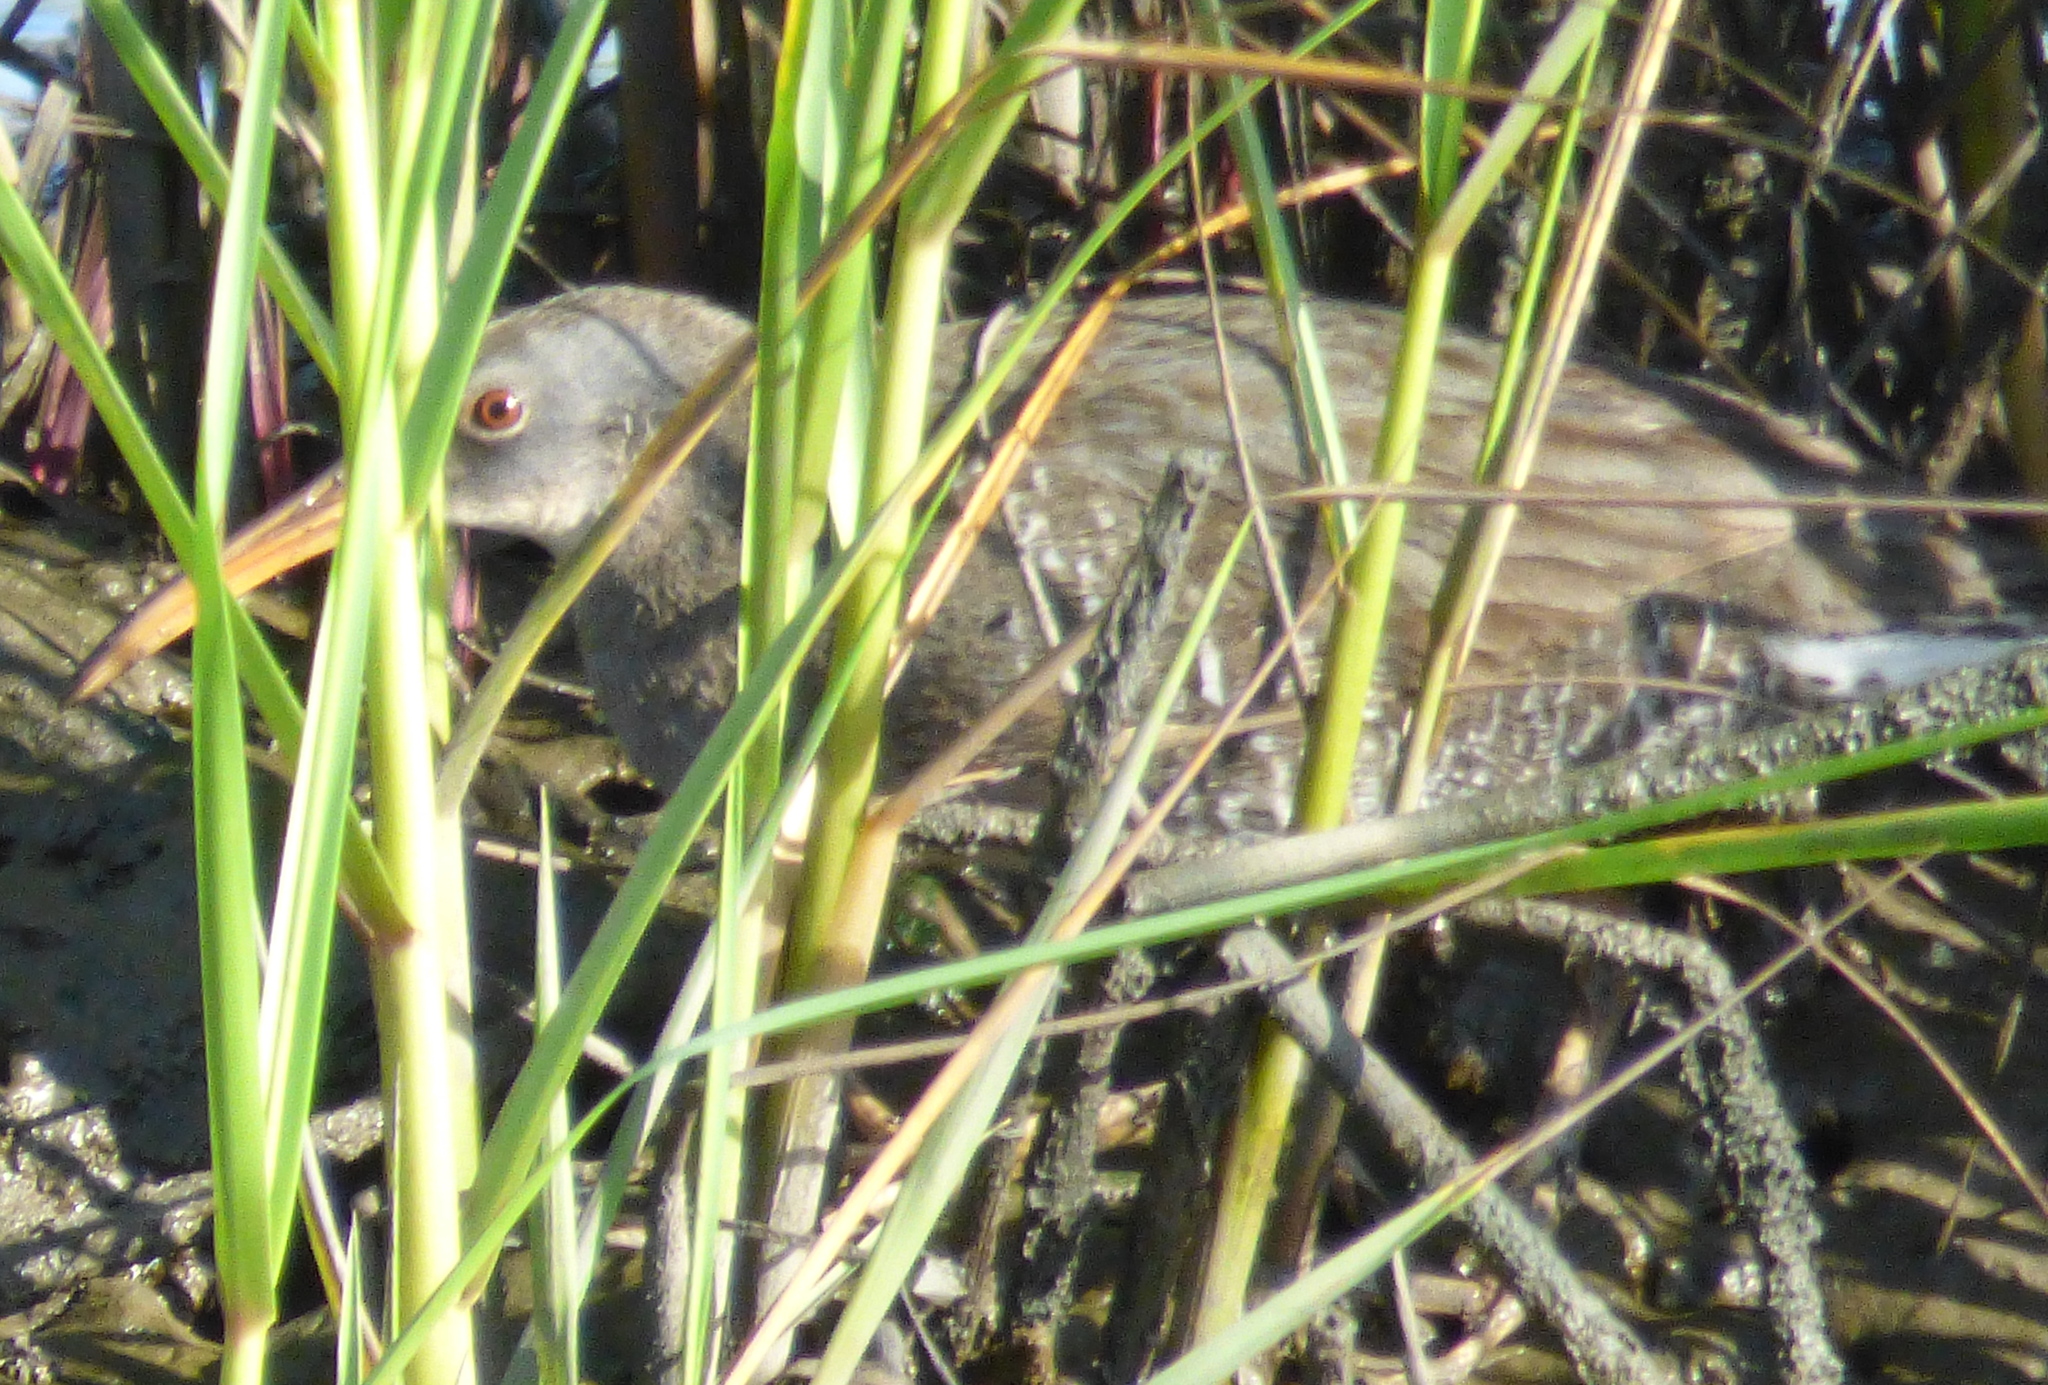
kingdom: Animalia
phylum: Chordata
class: Aves
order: Gruiformes
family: Rallidae
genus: Rallus
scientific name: Rallus crepitans
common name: Clapper rail
